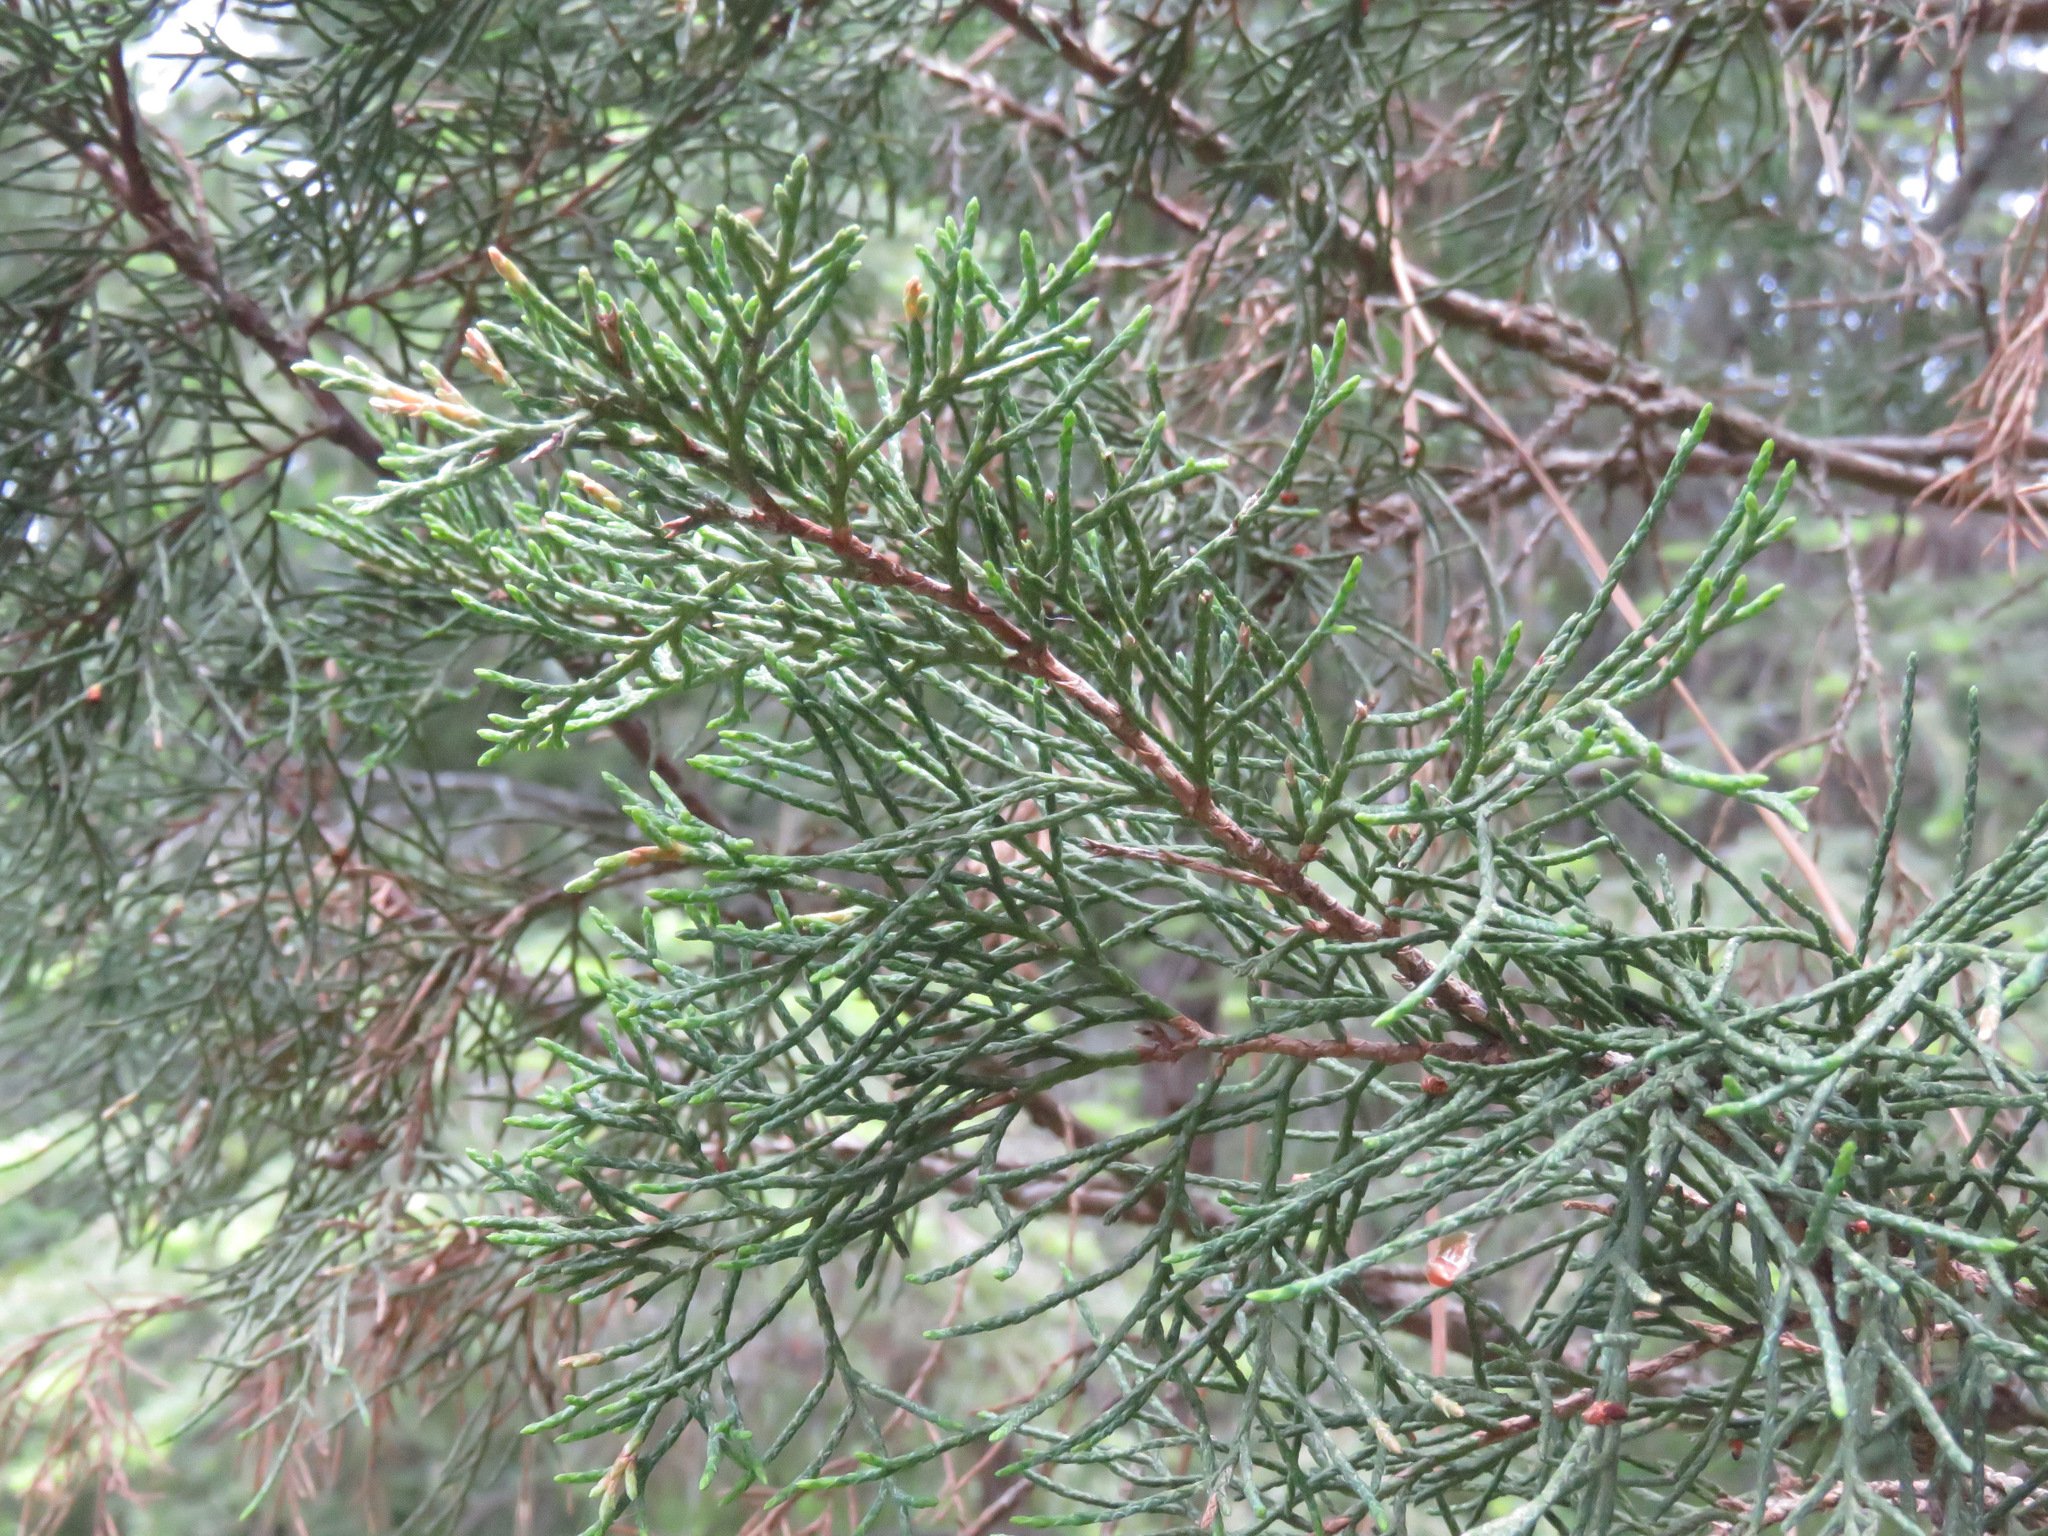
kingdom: Plantae
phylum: Tracheophyta
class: Pinopsida
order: Pinales
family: Cupressaceae
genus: Juniperus
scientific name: Juniperus scopulorum
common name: Rocky mountain juniper
